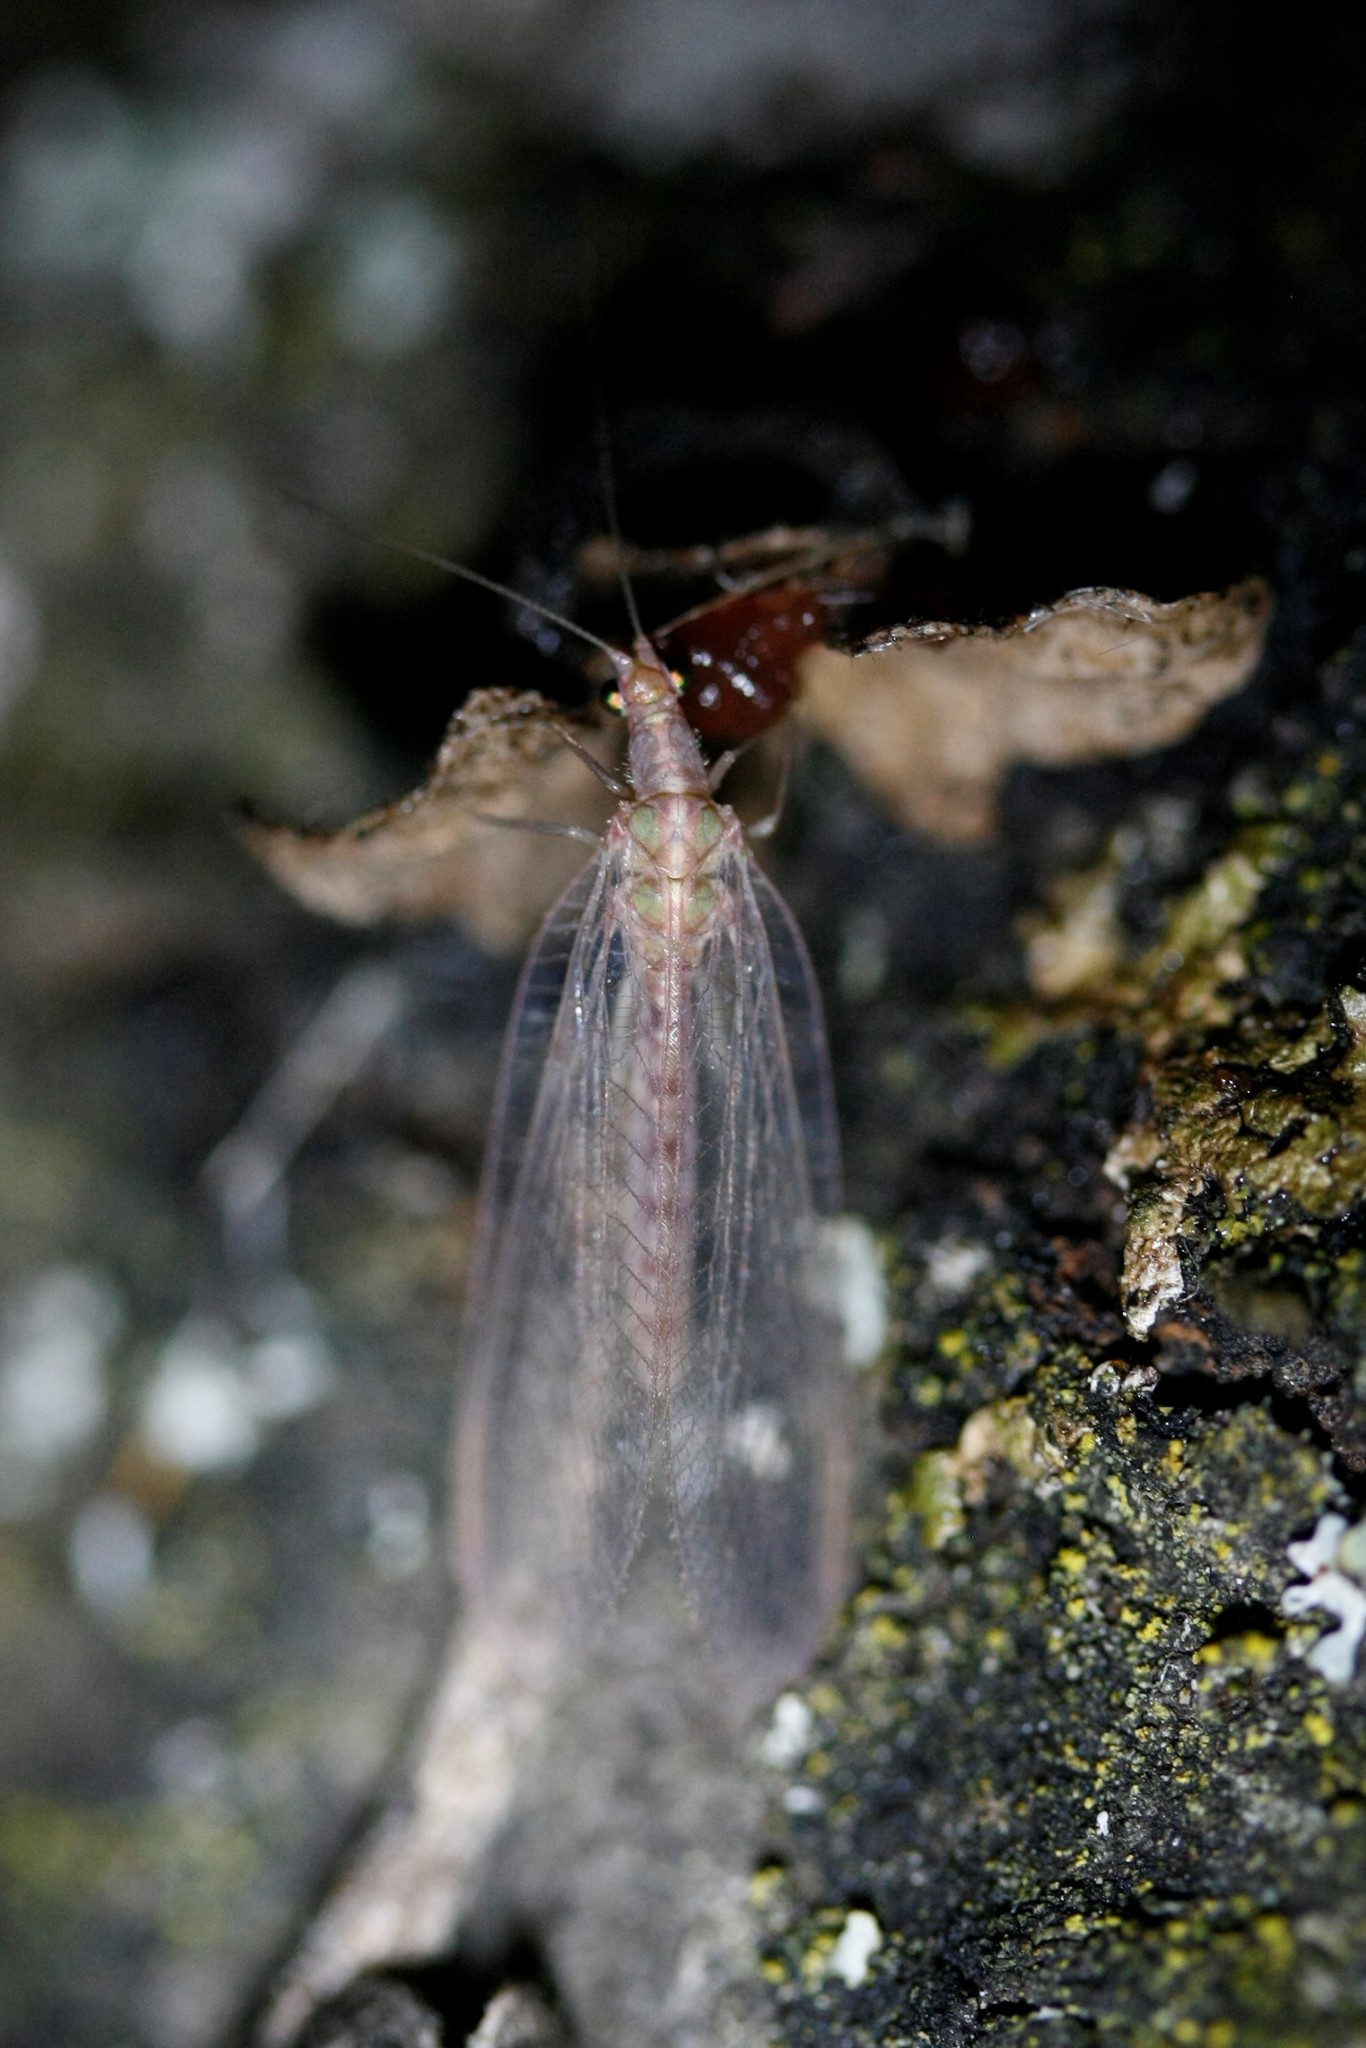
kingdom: Animalia
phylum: Arthropoda
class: Insecta
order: Neuroptera
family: Chrysopidae
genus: Chrysoperla
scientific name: Chrysoperla
